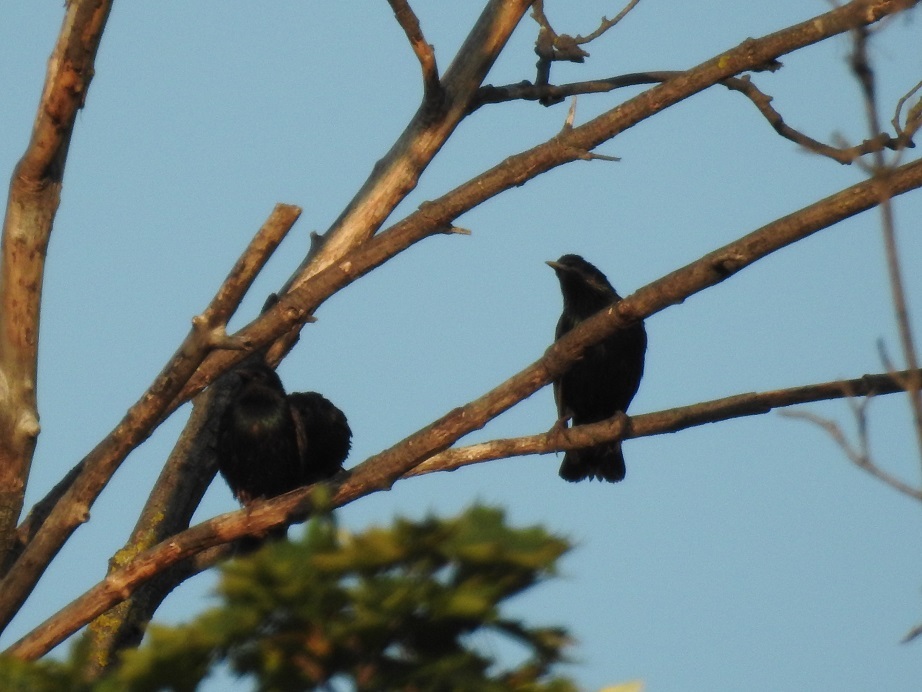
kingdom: Animalia
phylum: Chordata
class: Aves
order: Passeriformes
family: Sturnidae
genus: Sturnus
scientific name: Sturnus vulgaris
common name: Common starling
